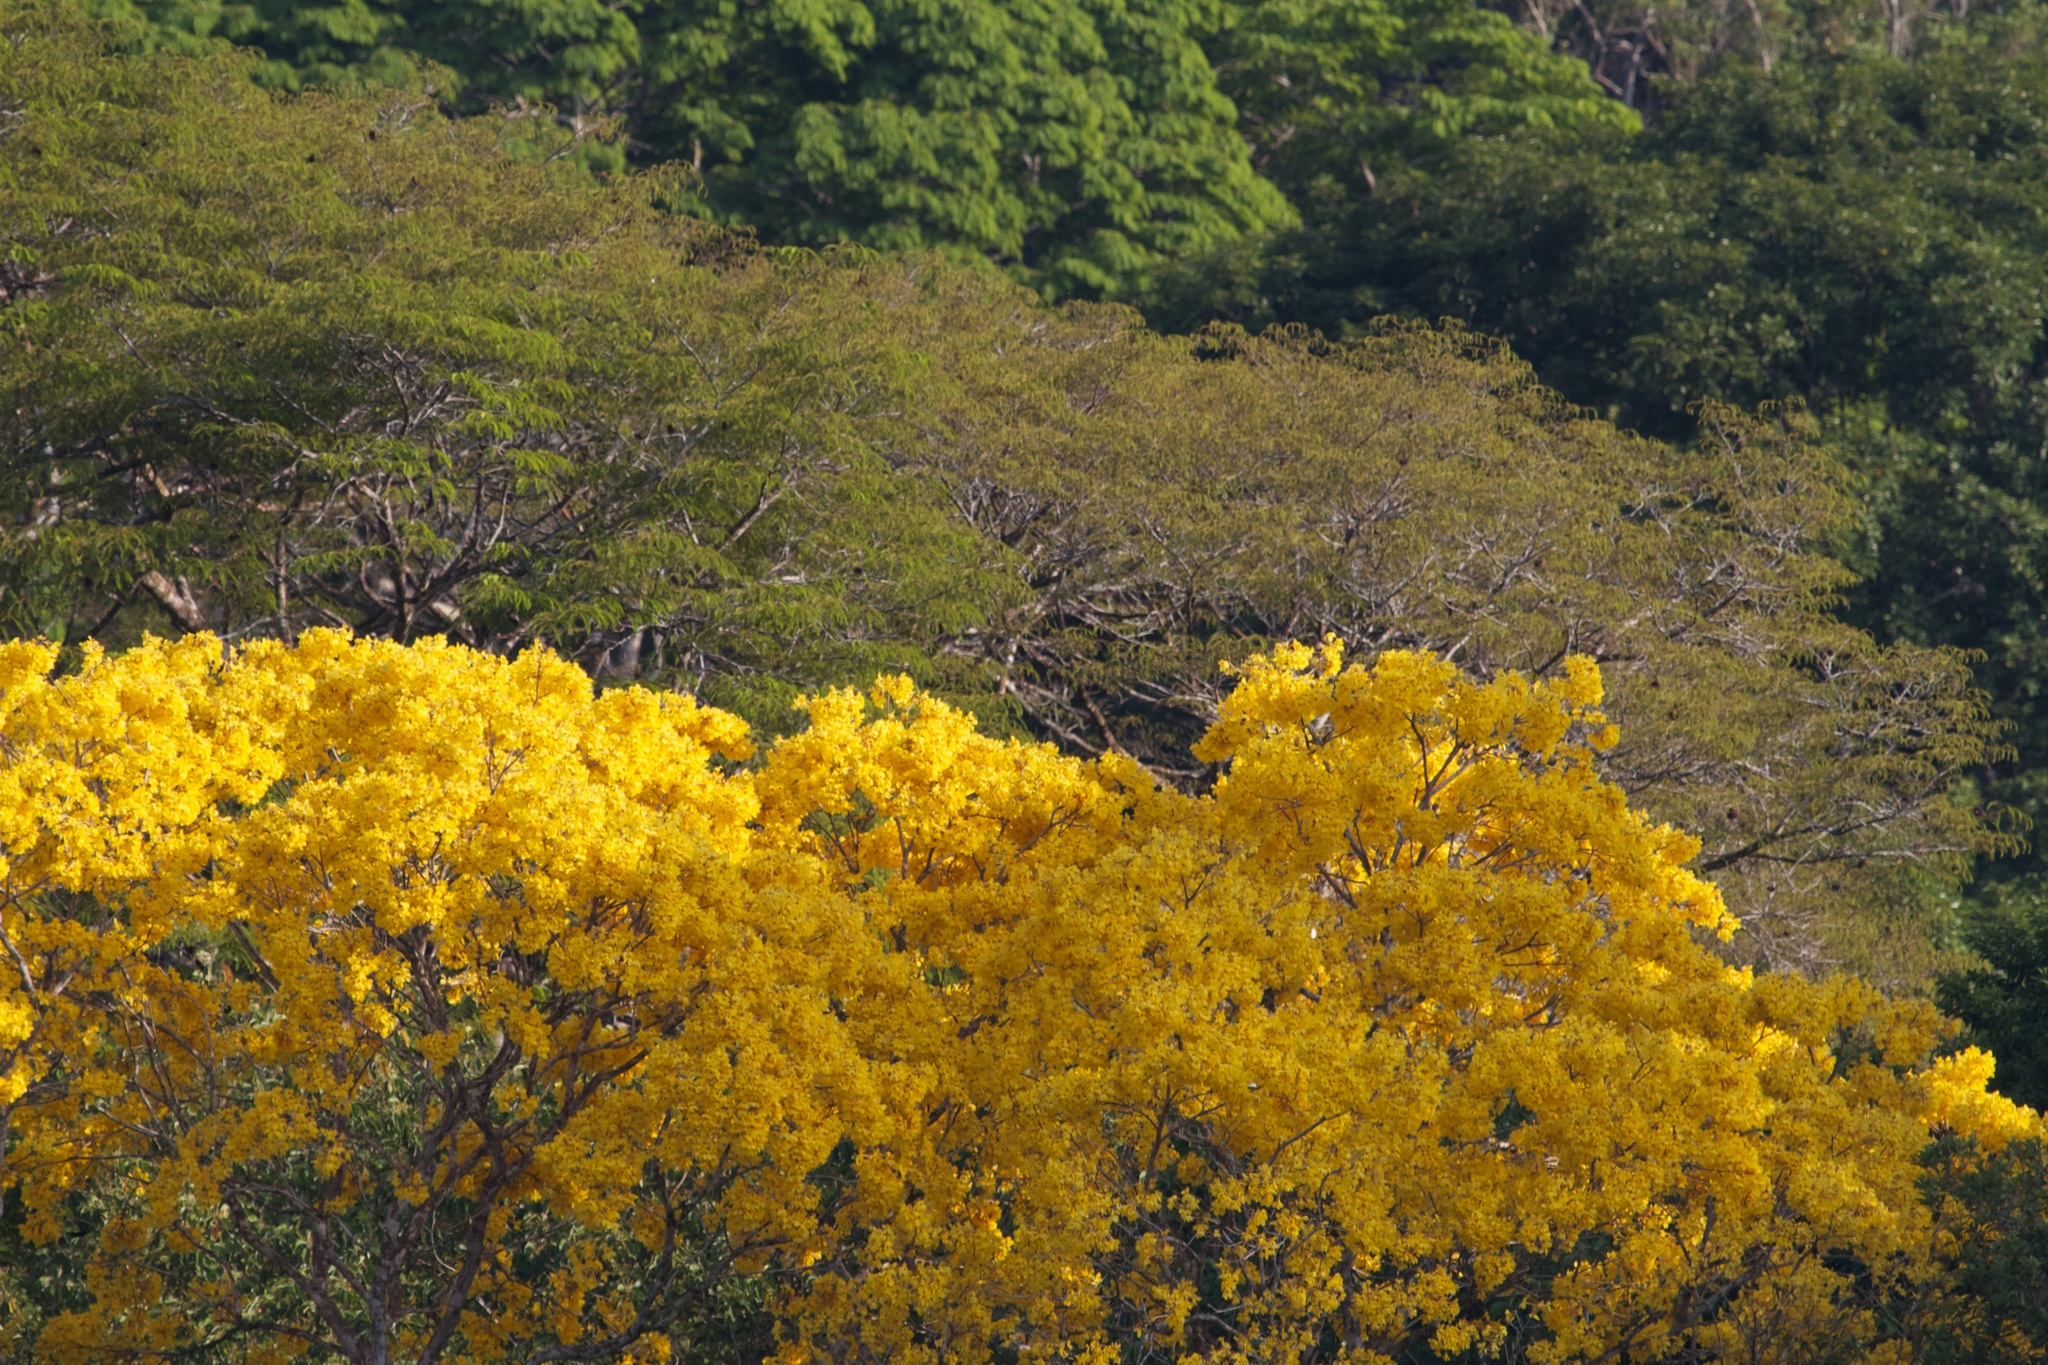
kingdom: Plantae
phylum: Tracheophyta
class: Magnoliopsida
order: Lamiales
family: Bignoniaceae
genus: Handroanthus
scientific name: Handroanthus guayacan
